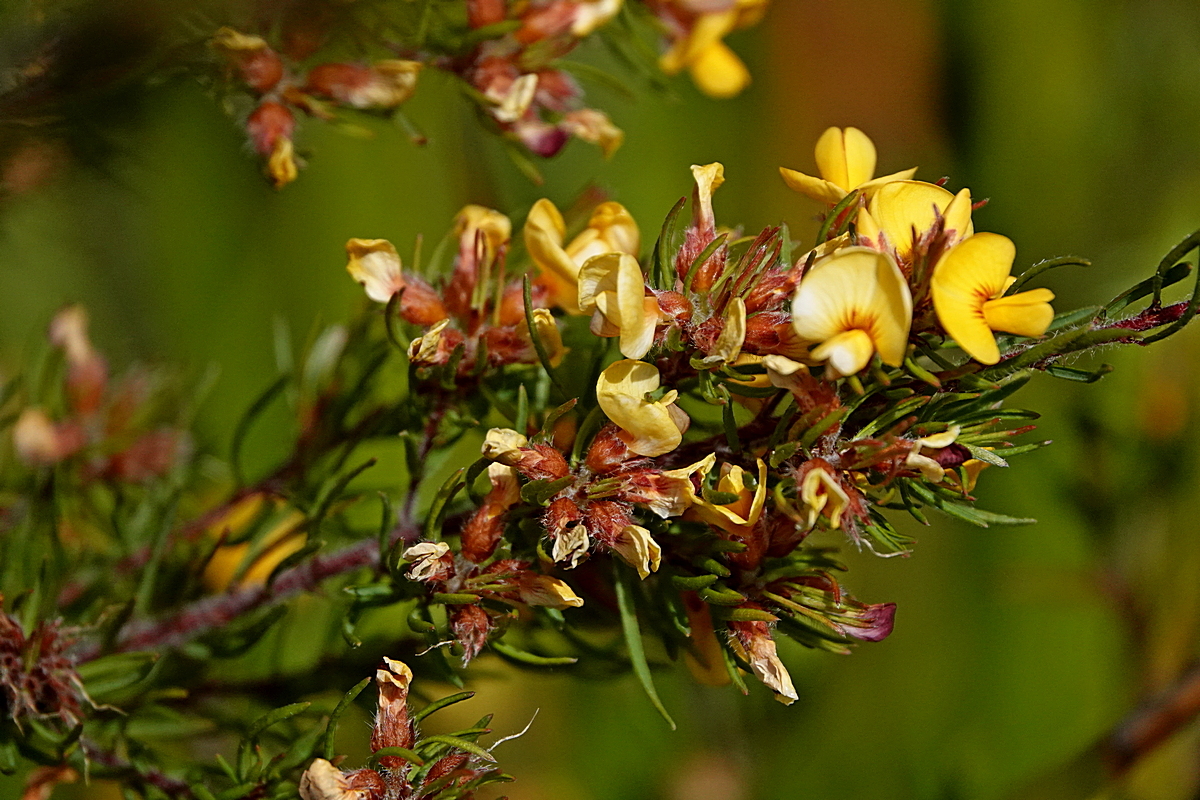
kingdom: Plantae
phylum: Tracheophyta
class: Magnoliopsida
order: Fabales
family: Fabaceae
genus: Pultenaea
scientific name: Pultenaea mollis
